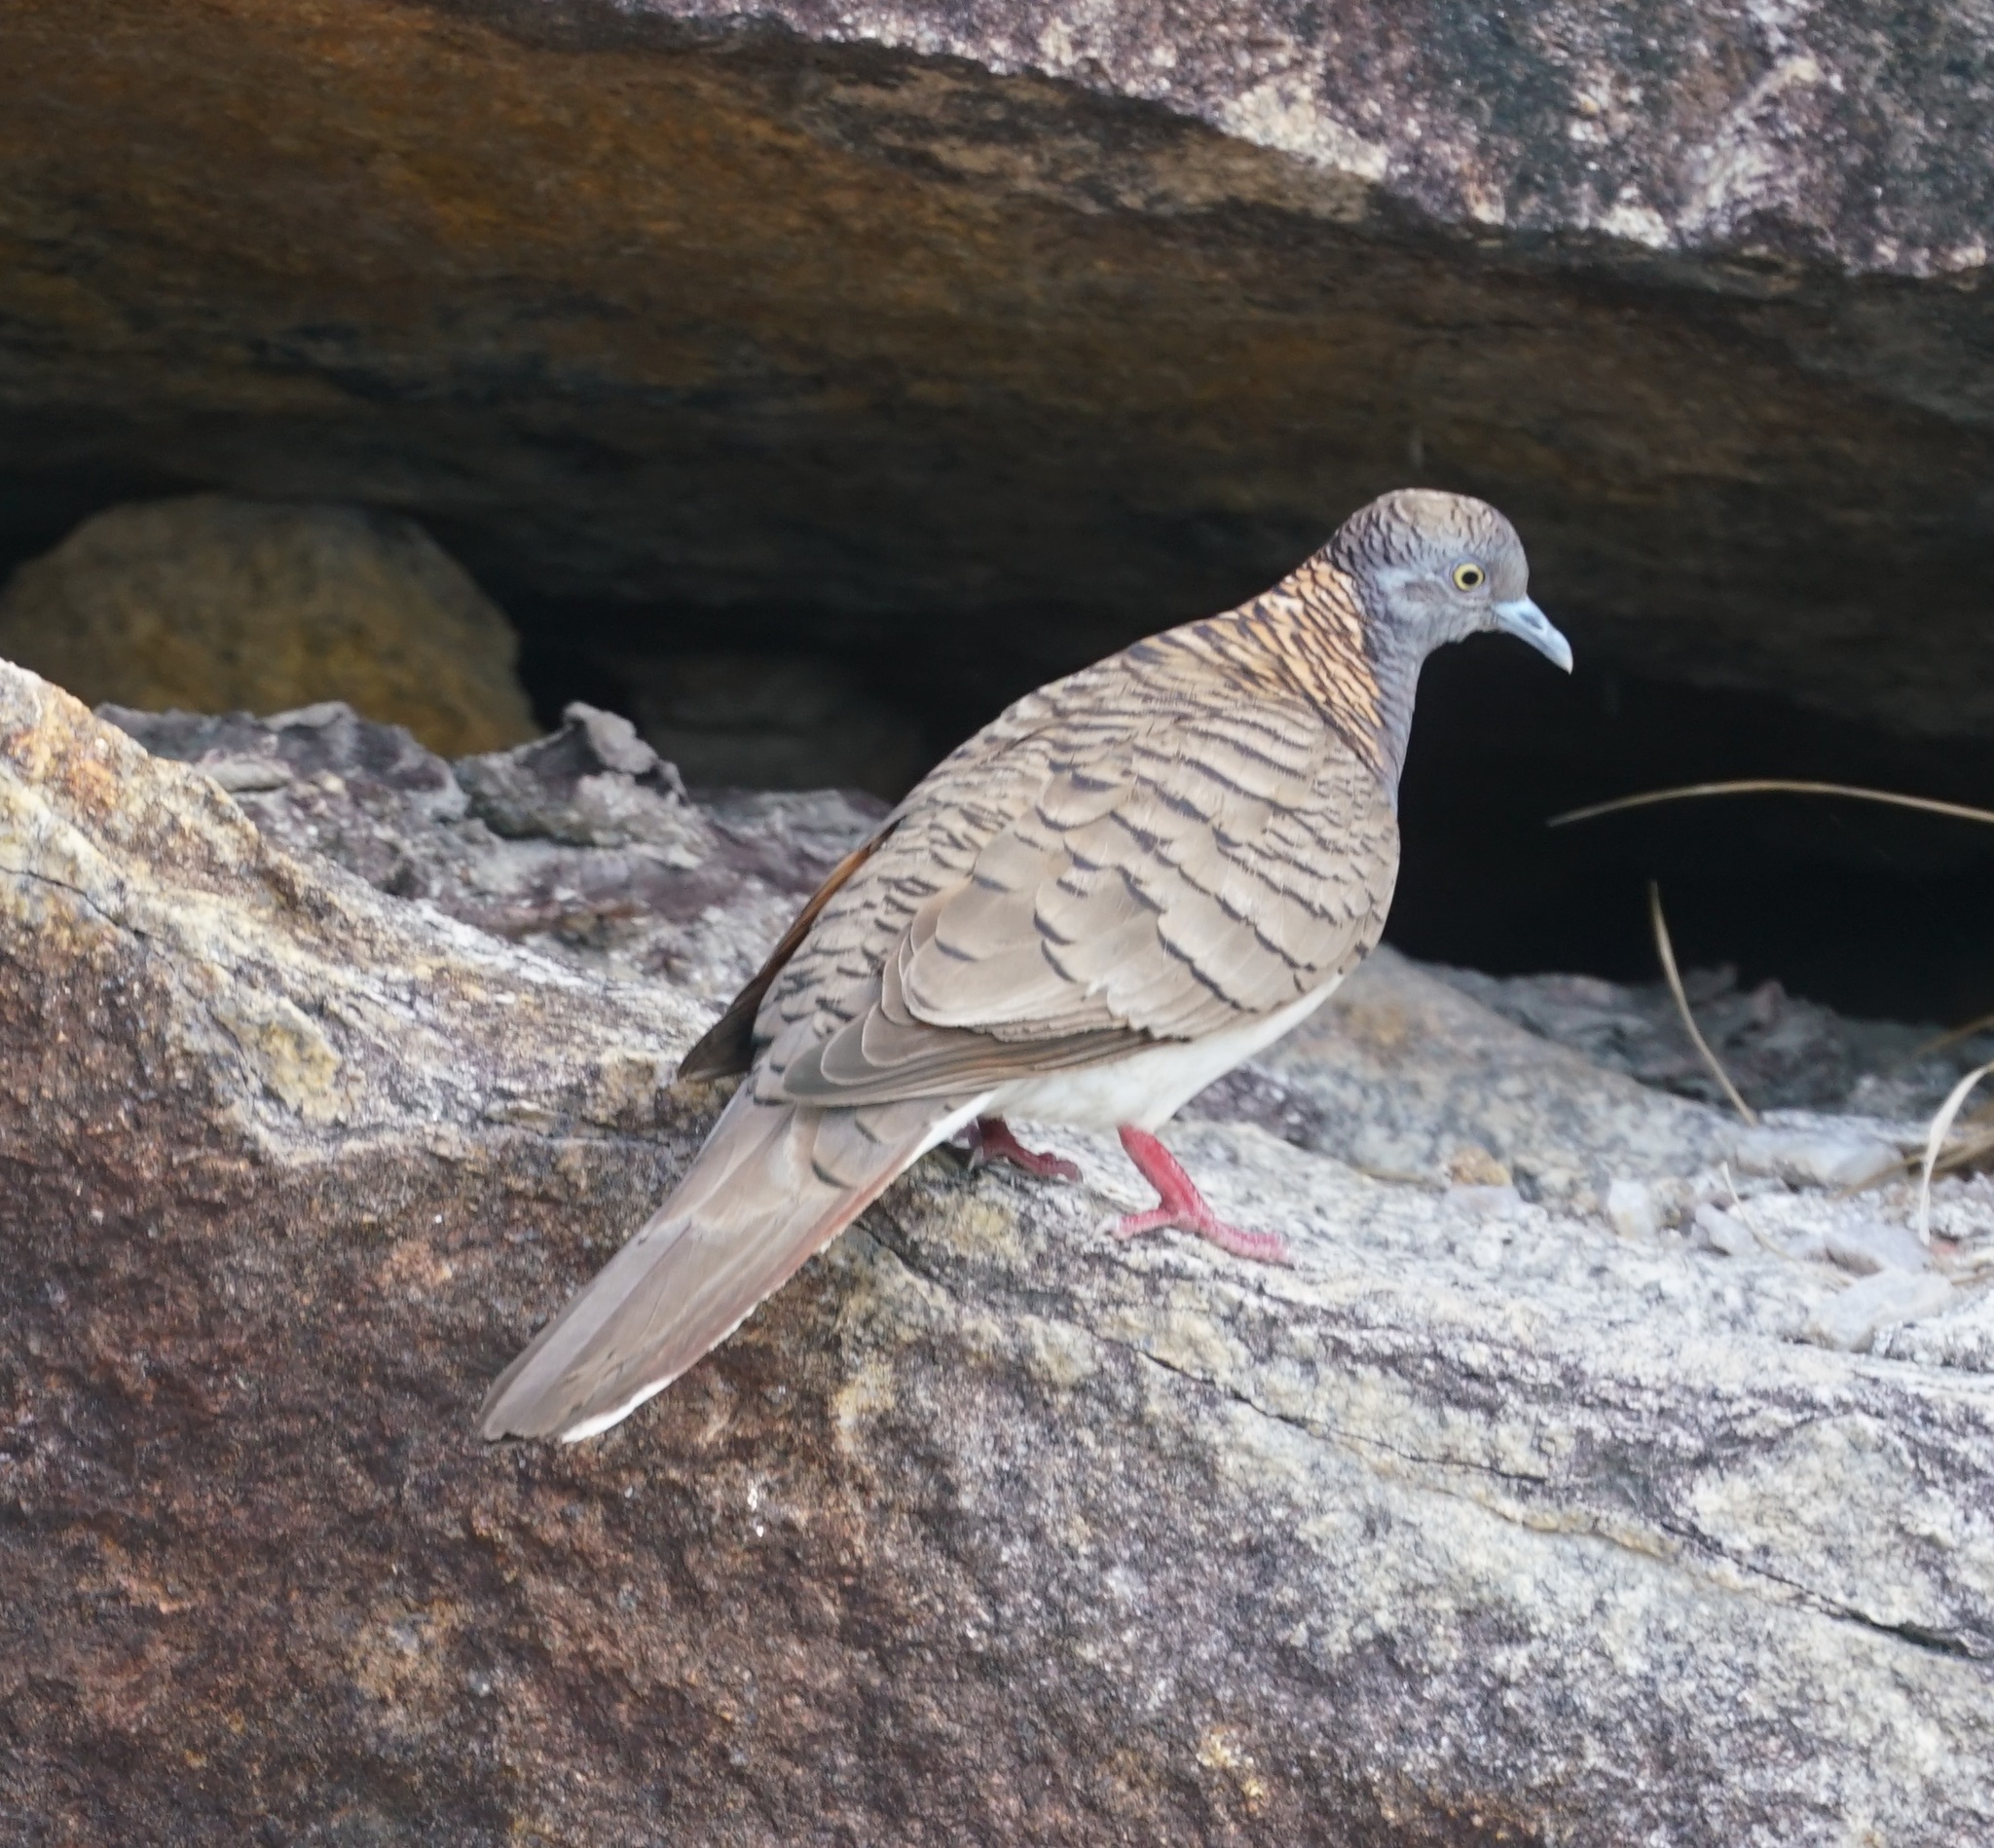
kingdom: Animalia
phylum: Chordata
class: Aves
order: Columbiformes
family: Columbidae
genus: Geopelia
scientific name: Geopelia humeralis
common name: Bar-shouldered dove
